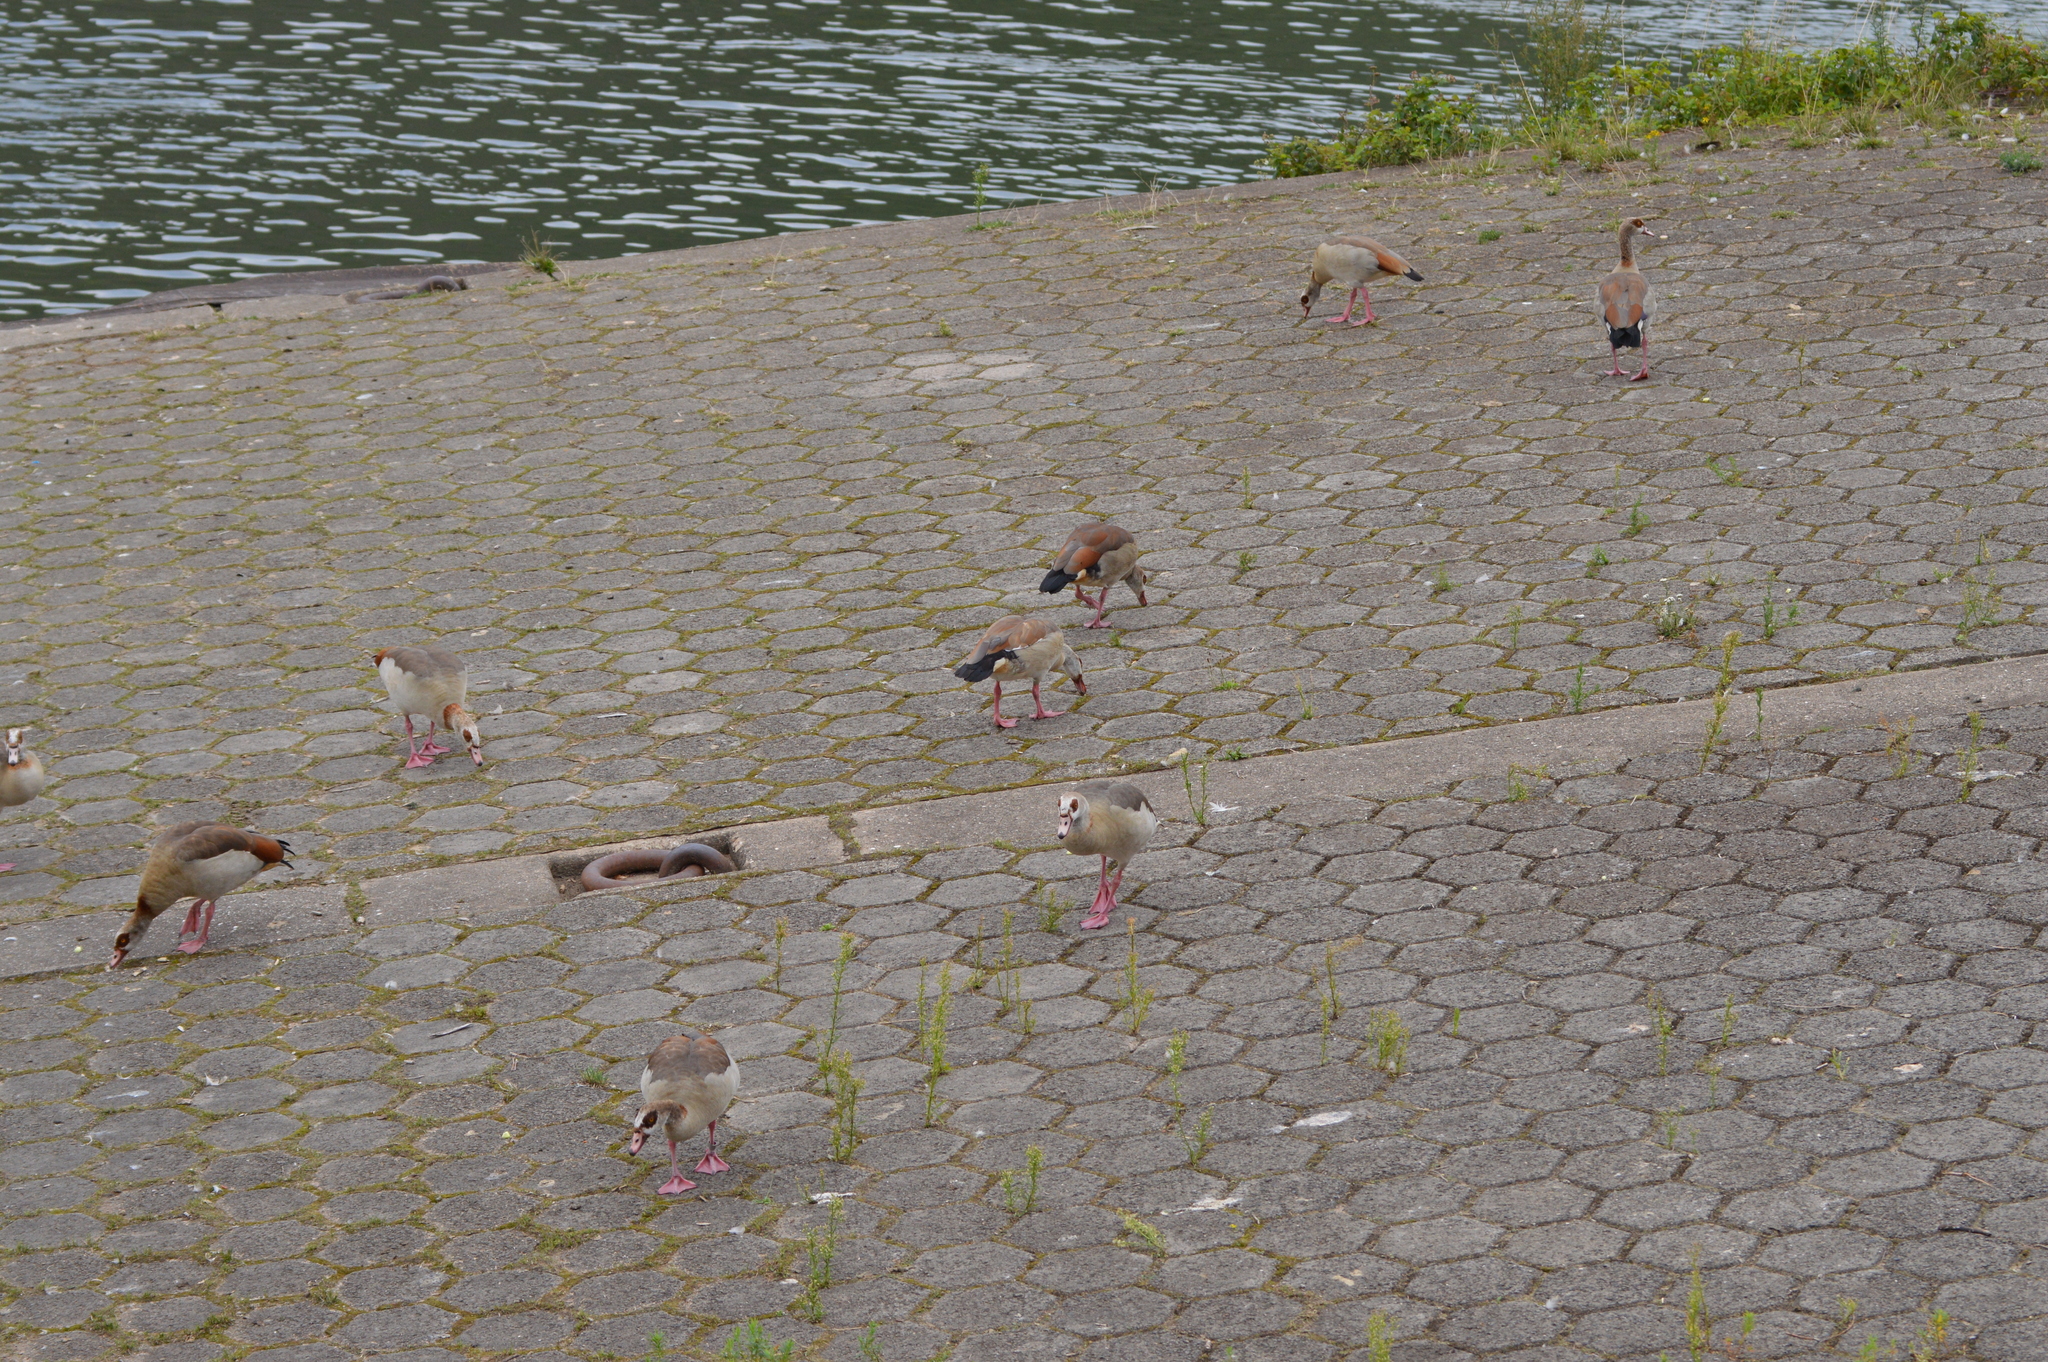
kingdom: Animalia
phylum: Chordata
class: Aves
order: Anseriformes
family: Anatidae
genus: Alopochen
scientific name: Alopochen aegyptiaca
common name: Egyptian goose
